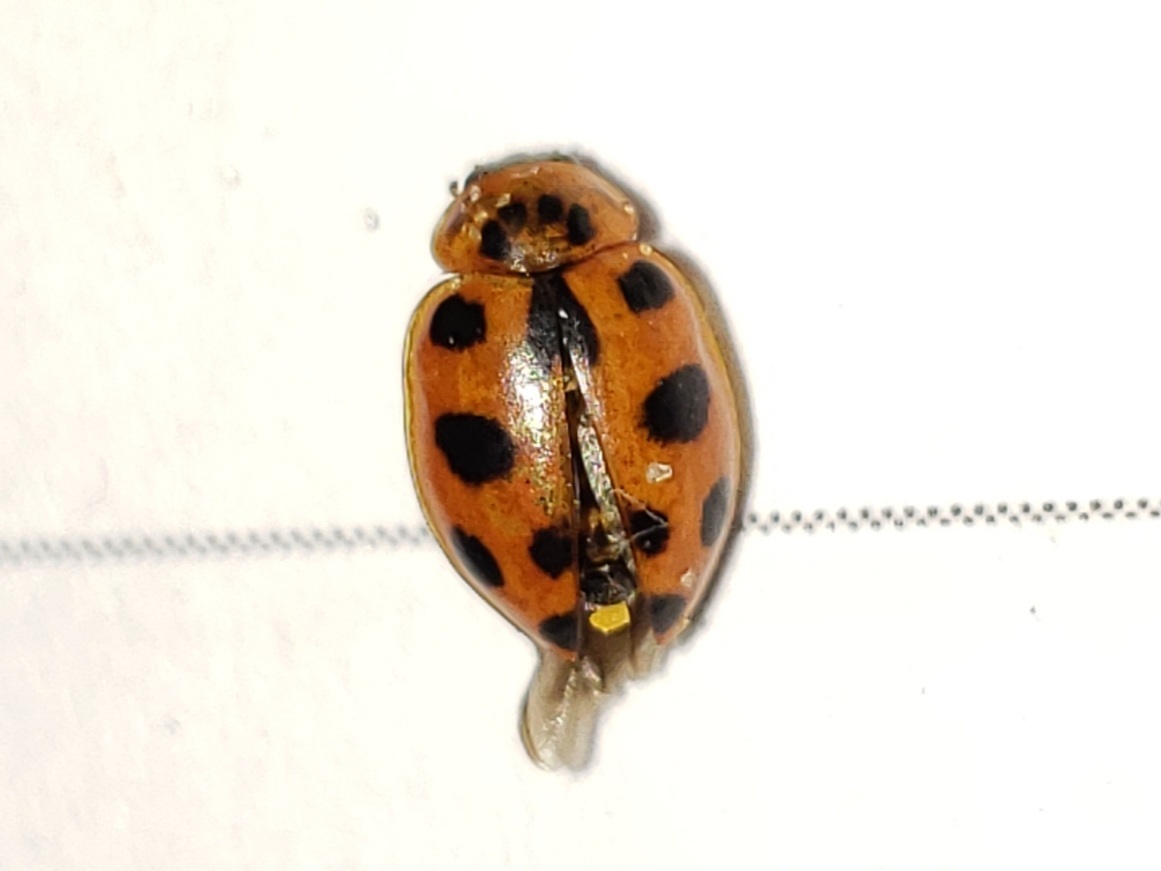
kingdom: Animalia
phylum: Arthropoda
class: Insecta
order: Coleoptera
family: Coccinellidae
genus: Naemia
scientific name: Naemia seriata
